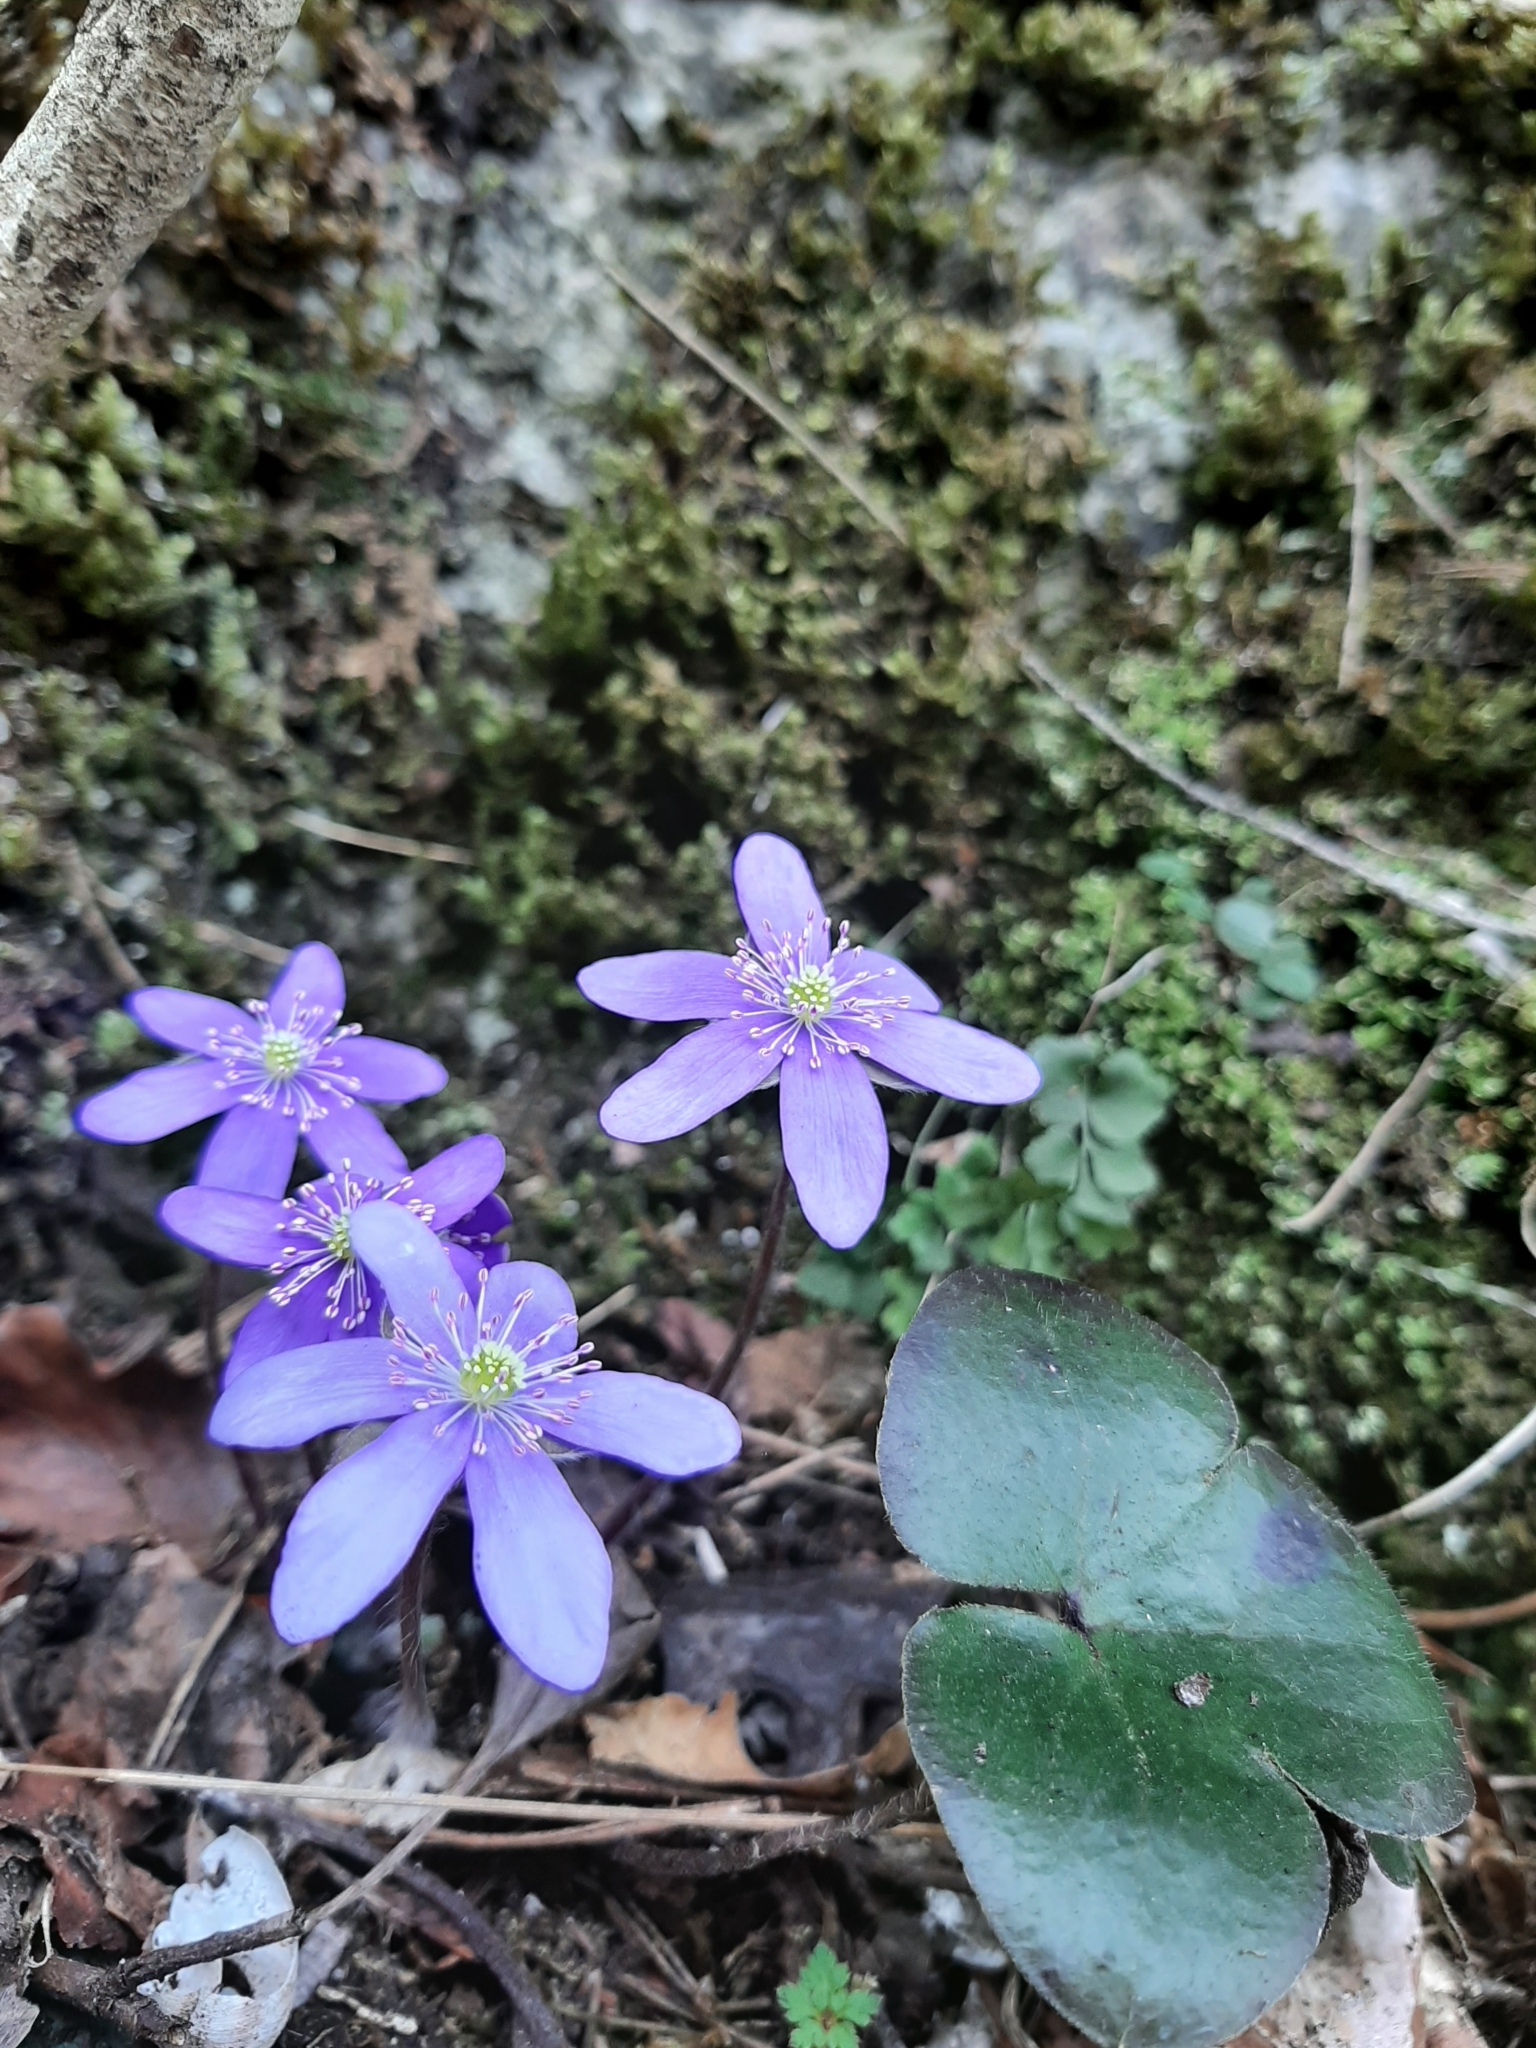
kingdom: Plantae
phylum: Tracheophyta
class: Magnoliopsida
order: Ranunculales
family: Ranunculaceae
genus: Hepatica
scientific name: Hepatica nobilis
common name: Liverleaf
